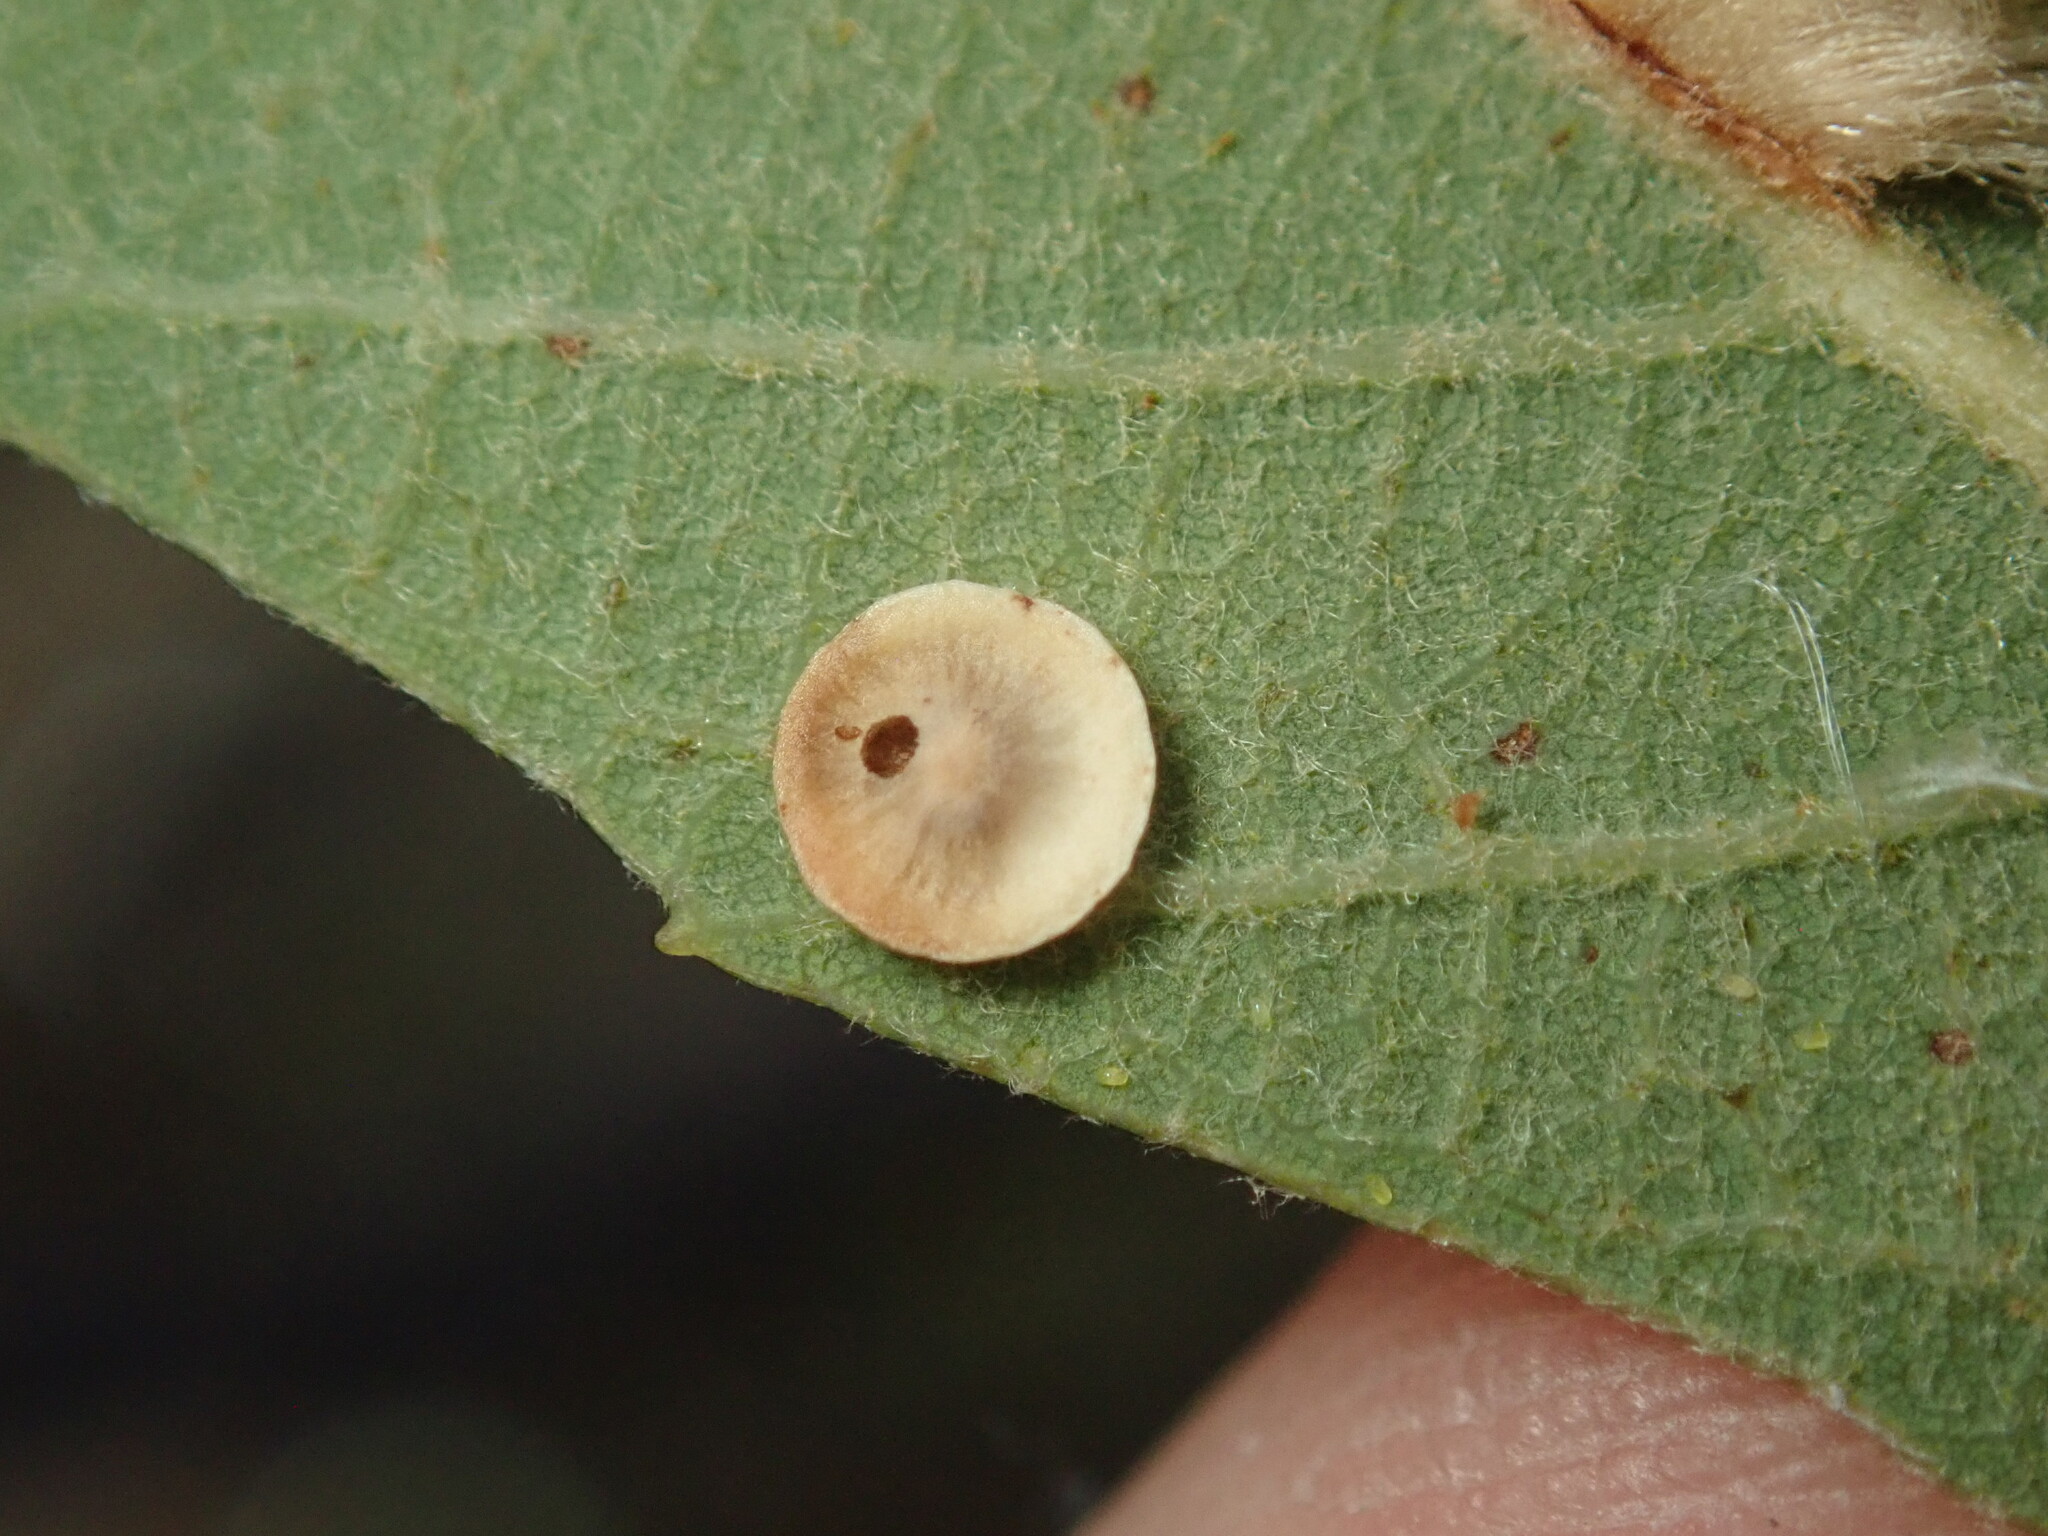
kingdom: Animalia
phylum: Arthropoda
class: Insecta
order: Hymenoptera
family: Cynipidae
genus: Andricus
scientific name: Andricus
